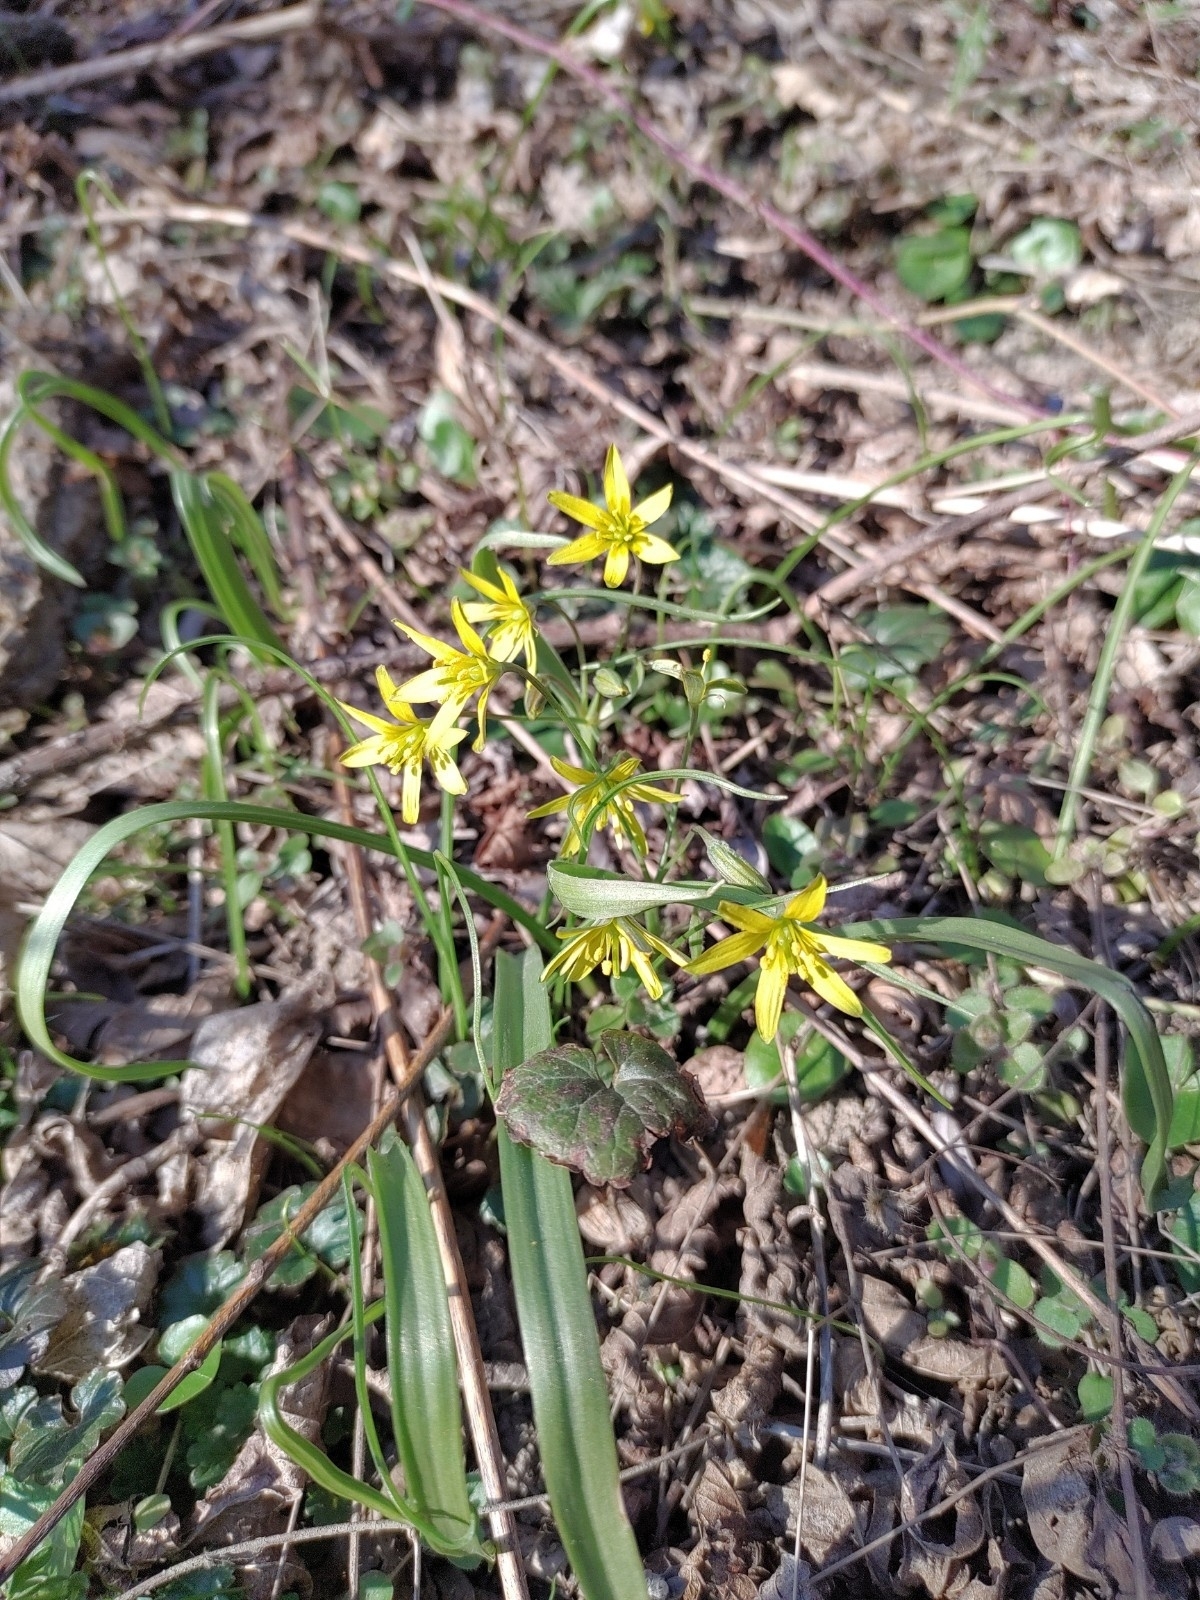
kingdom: Plantae
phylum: Tracheophyta
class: Liliopsida
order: Liliales
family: Liliaceae
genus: Gagea
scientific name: Gagea lutea
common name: Yellow star-of-bethlehem
